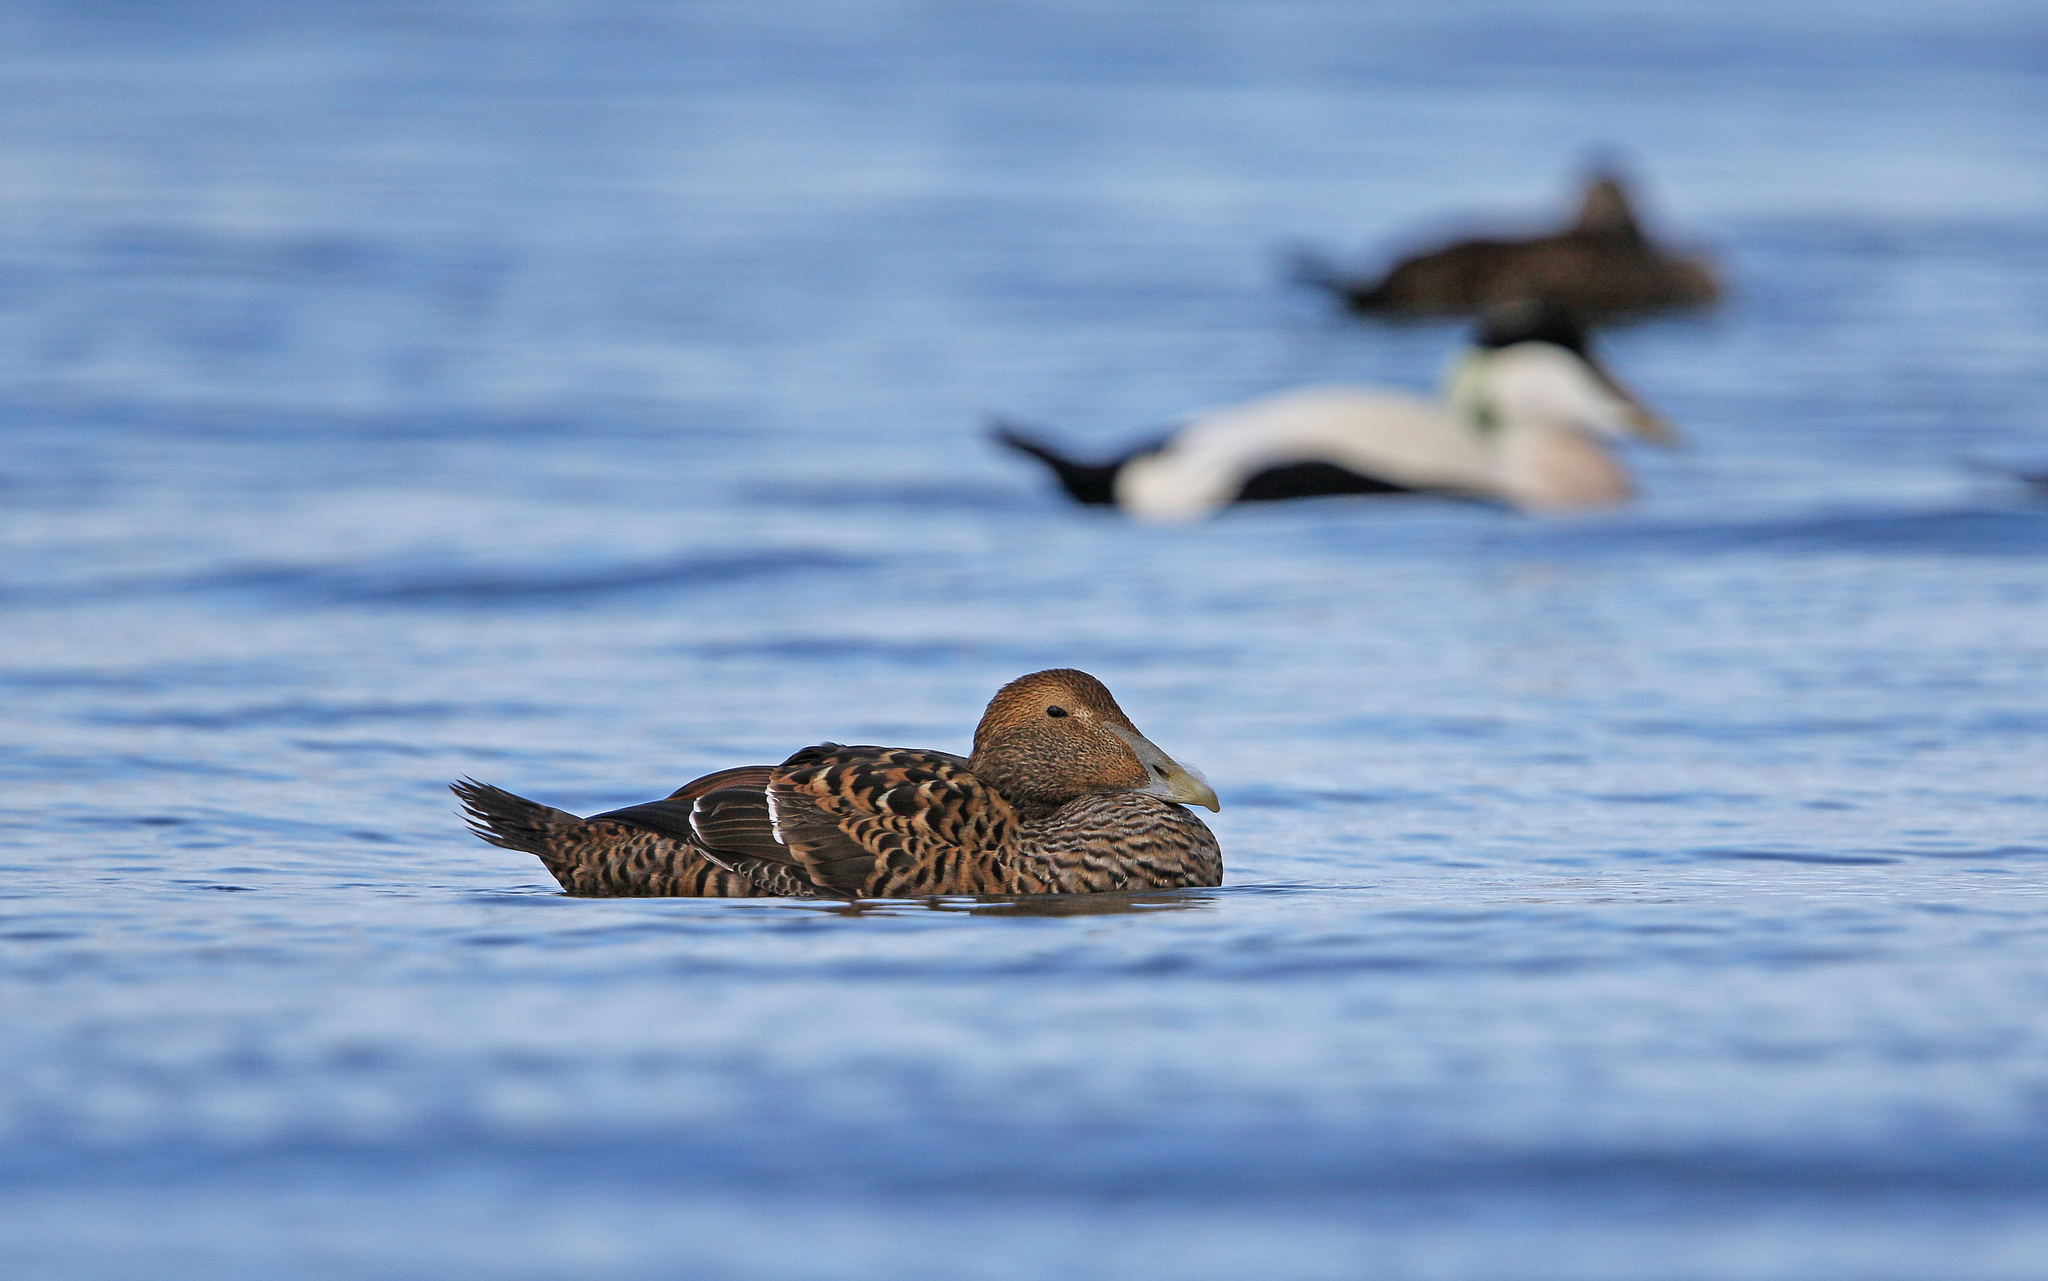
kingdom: Animalia
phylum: Chordata
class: Aves
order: Anseriformes
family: Anatidae
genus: Somateria
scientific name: Somateria mollissima
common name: Common eider
